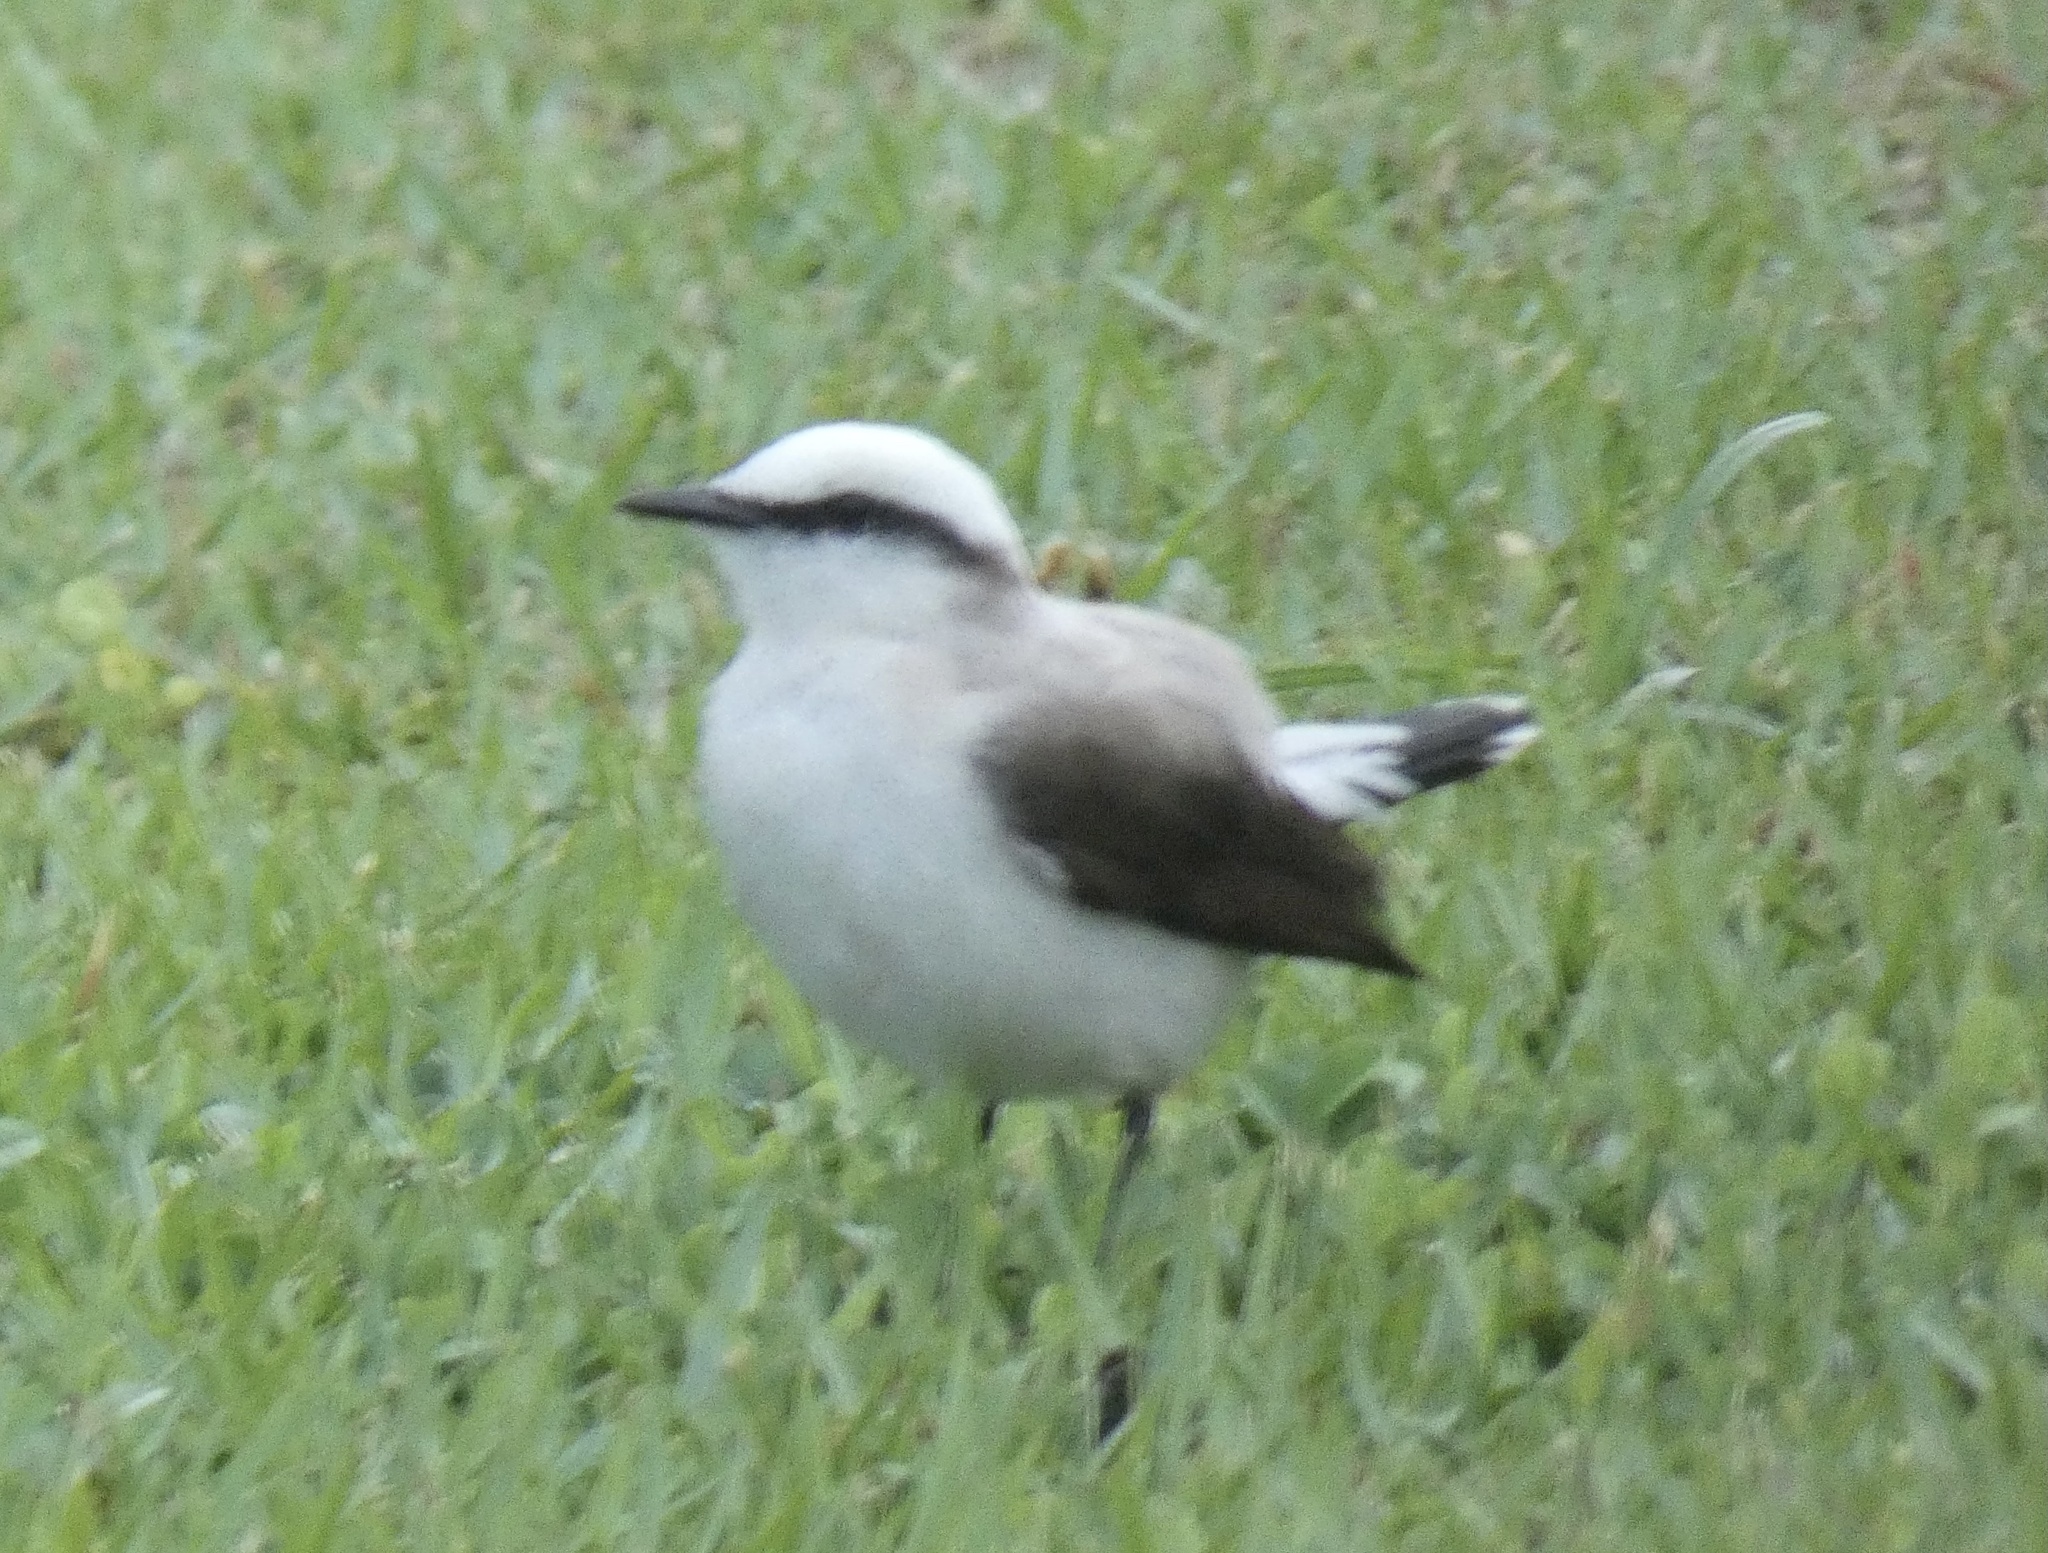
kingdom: Animalia
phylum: Chordata
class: Aves
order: Passeriformes
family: Tyrannidae
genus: Fluvicola
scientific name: Fluvicola nengeta
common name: Masked water tyrant
